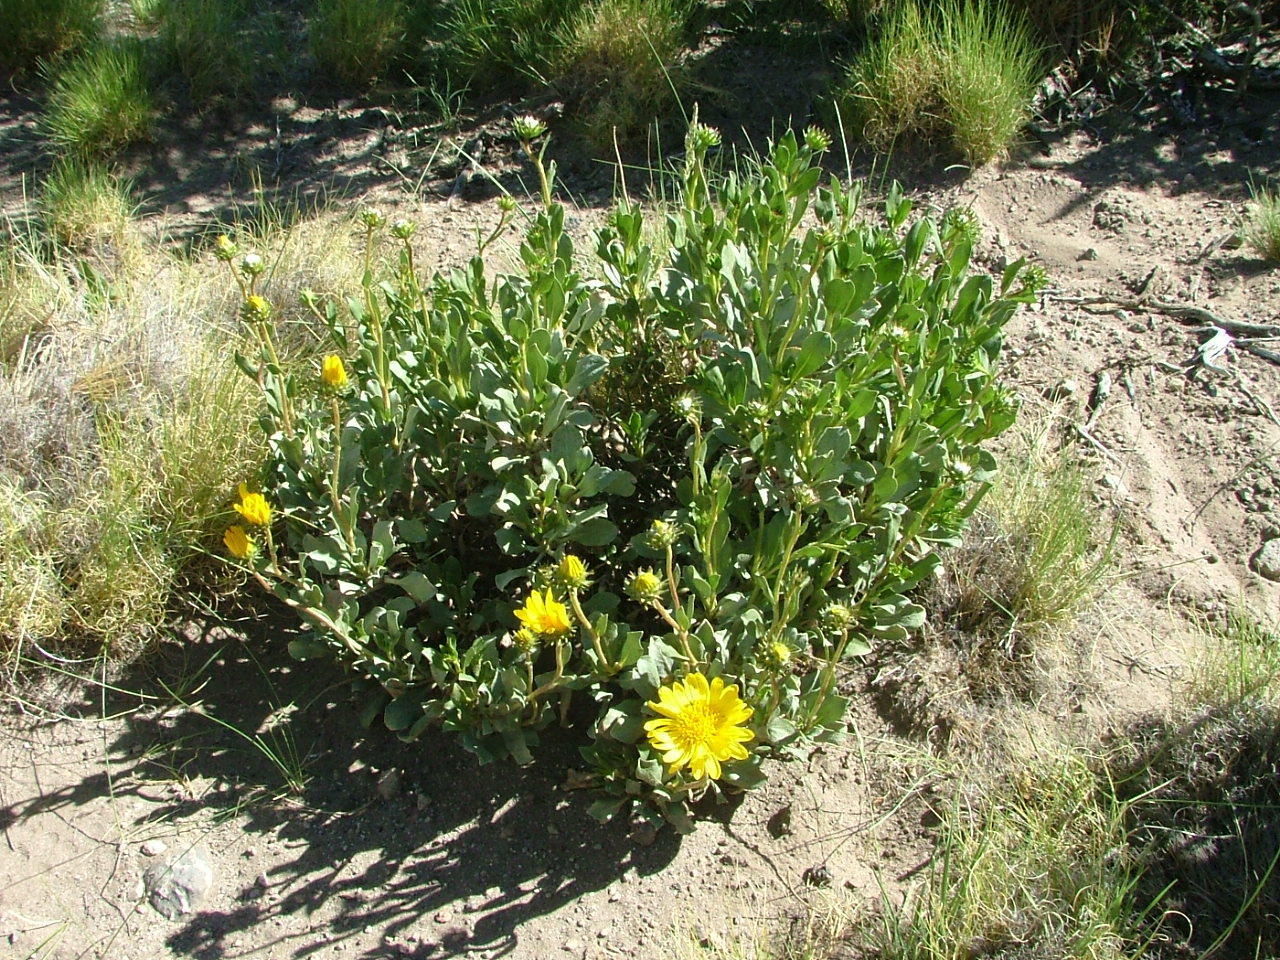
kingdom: Plantae
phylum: Tracheophyta
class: Magnoliopsida
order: Asterales
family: Asteraceae
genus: Grindelia
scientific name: Grindelia chiloensis
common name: Shrubby gumweed
